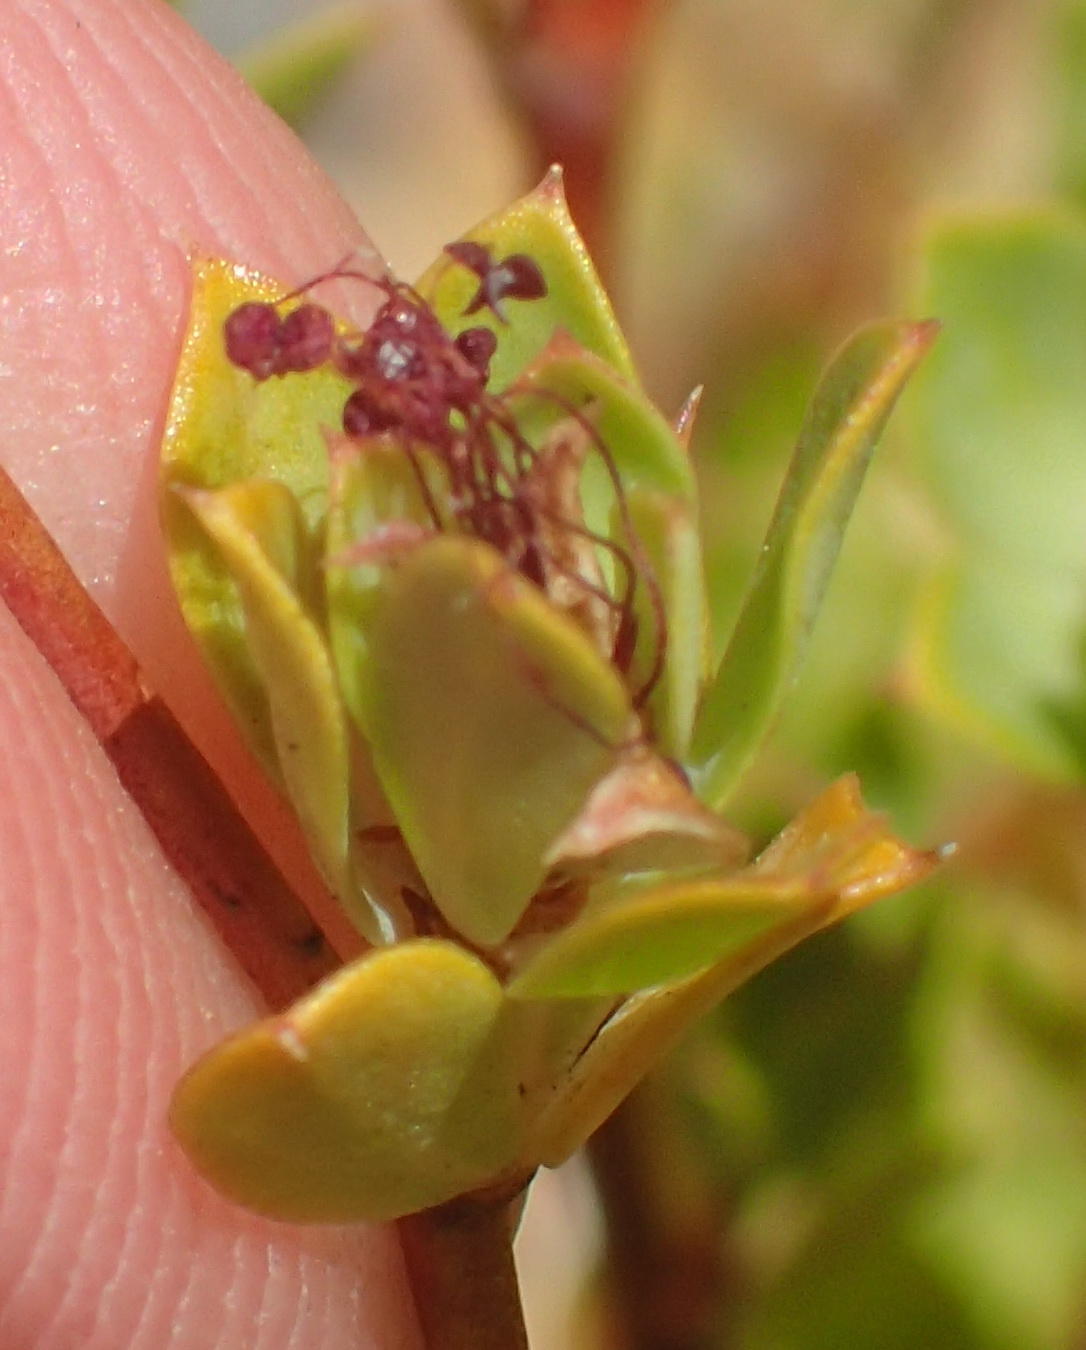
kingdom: Plantae
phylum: Tracheophyta
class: Magnoliopsida
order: Rosales
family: Rosaceae
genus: Cliffortia
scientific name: Cliffortia glauca
